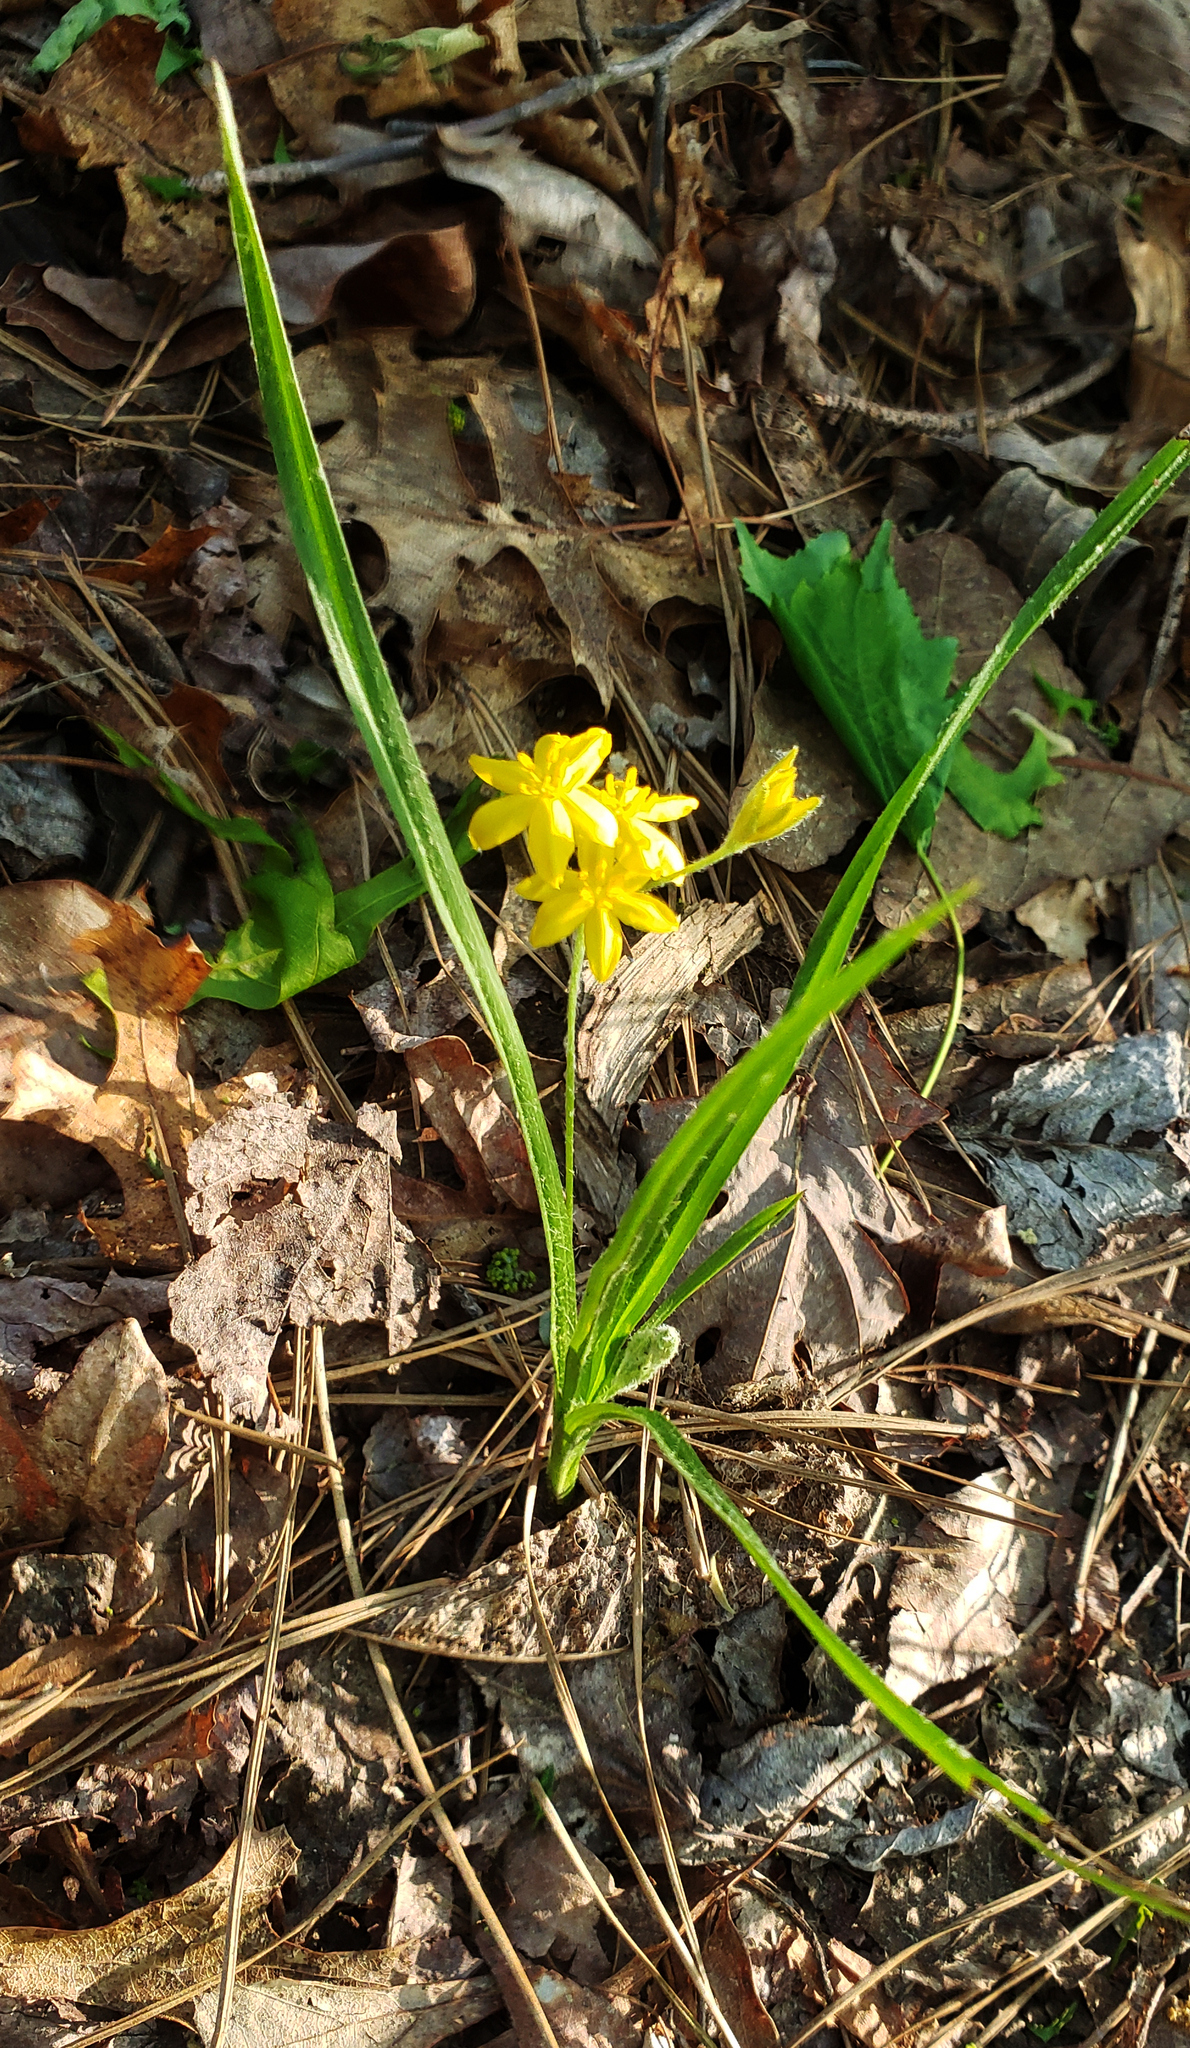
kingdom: Plantae
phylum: Tracheophyta
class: Liliopsida
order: Asparagales
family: Hypoxidaceae
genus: Hypoxis
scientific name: Hypoxis hirsuta
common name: Common goldstar
